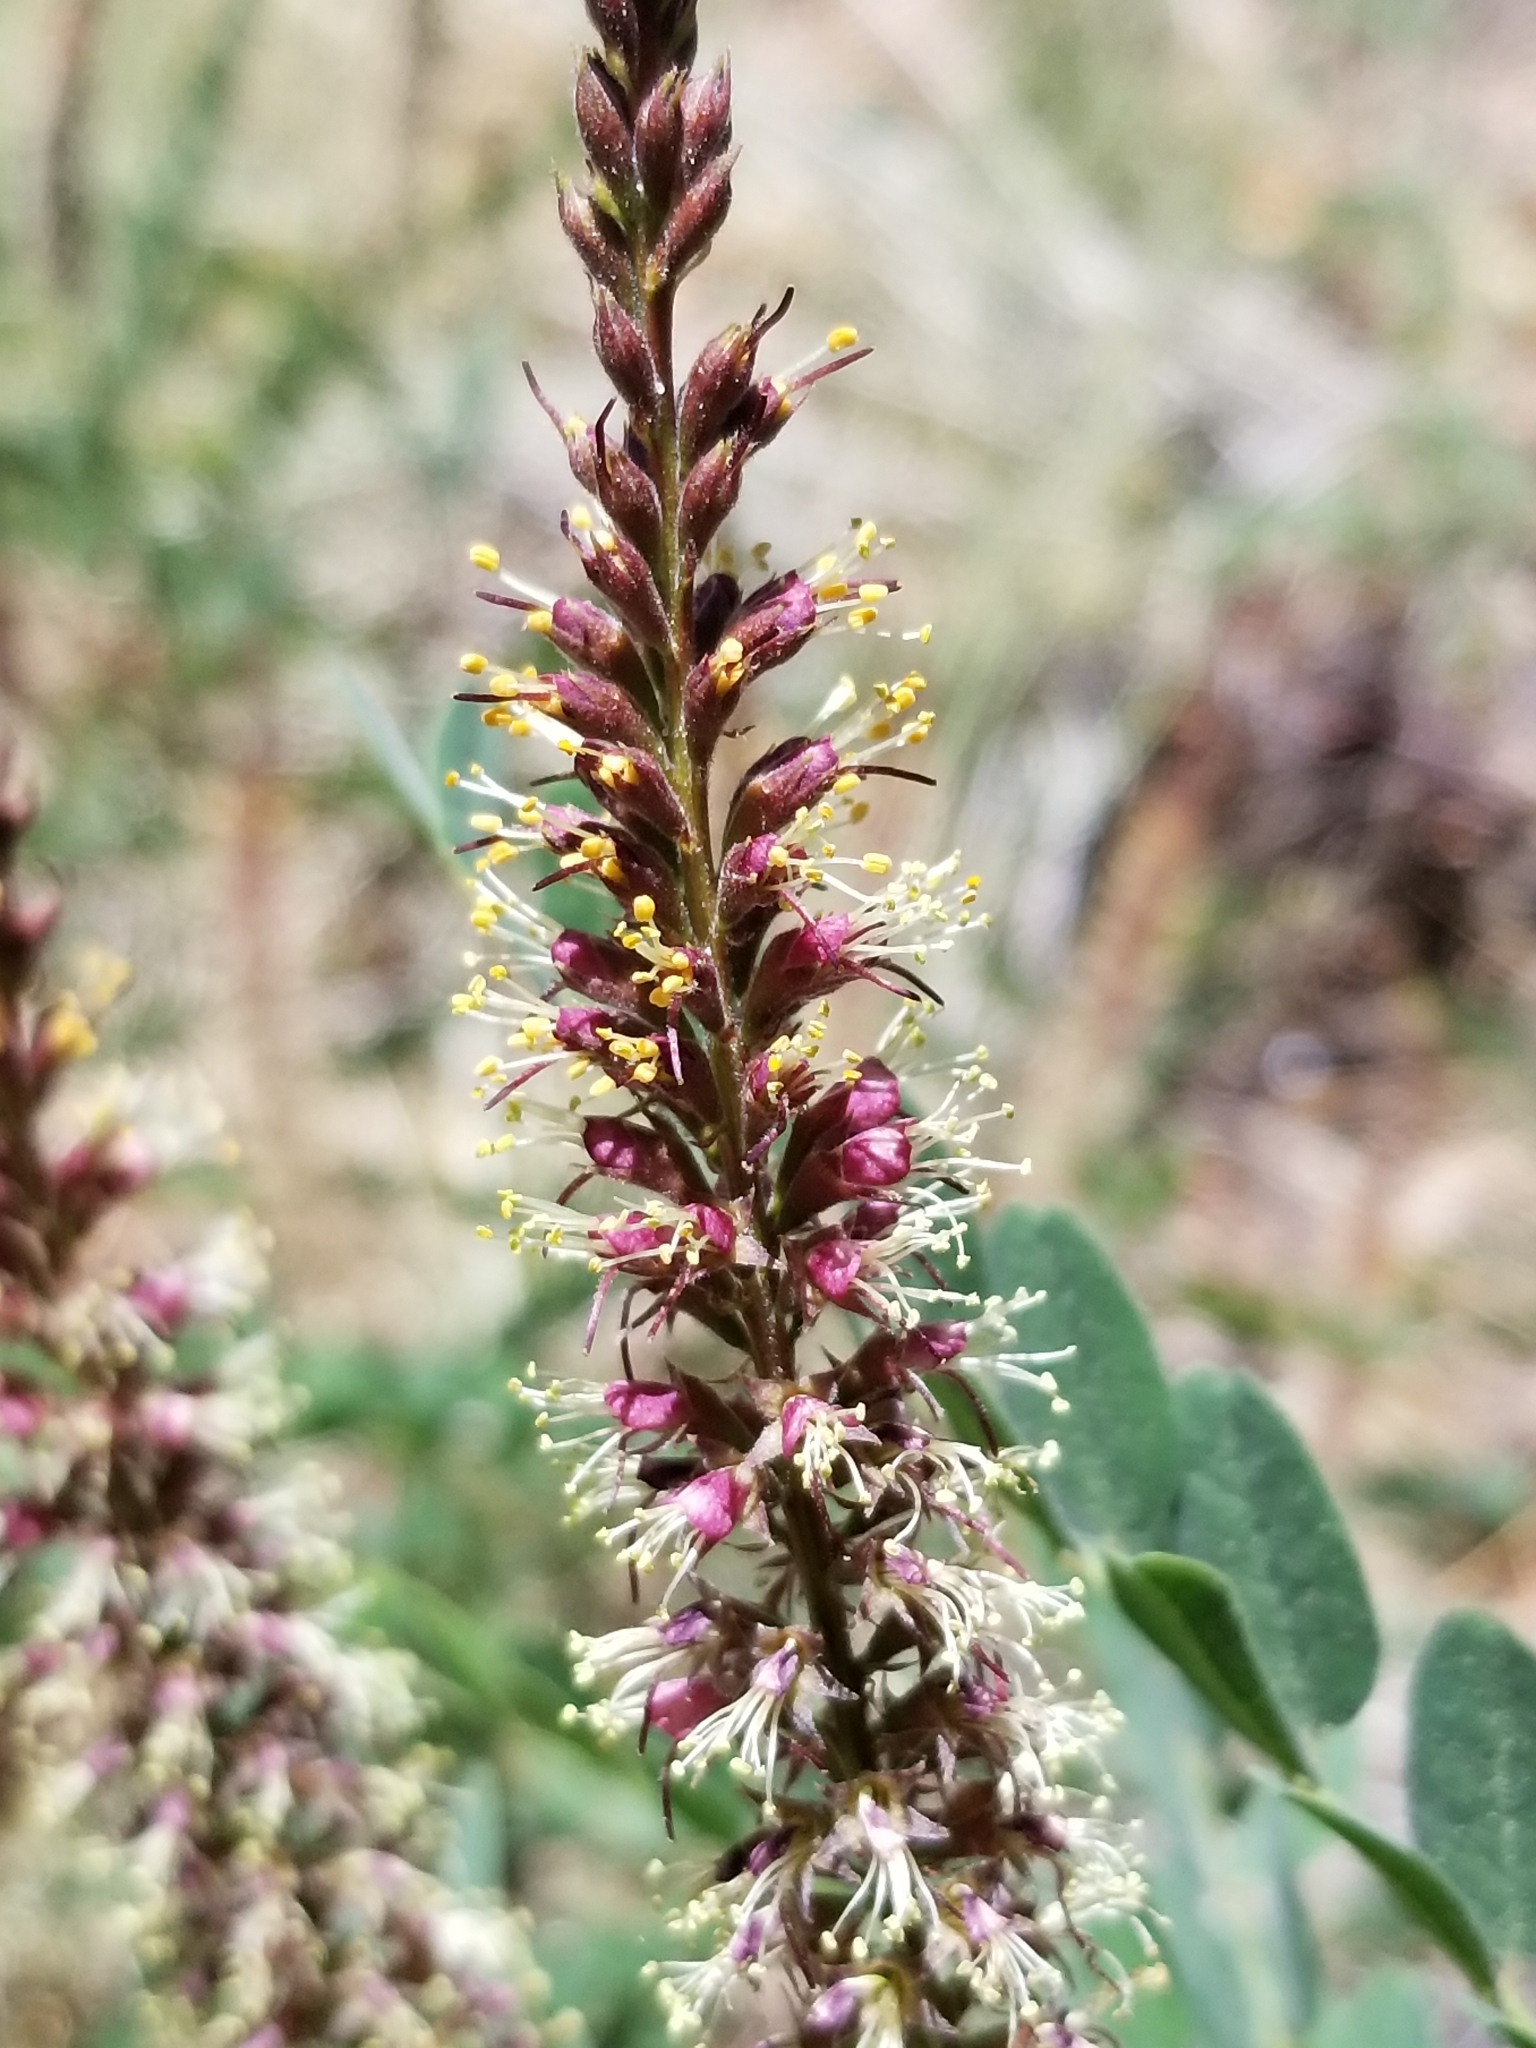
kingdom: Plantae
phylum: Tracheophyta
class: Magnoliopsida
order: Fabales
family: Fabaceae
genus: Amorpha
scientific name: Amorpha californica
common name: California indigobush
